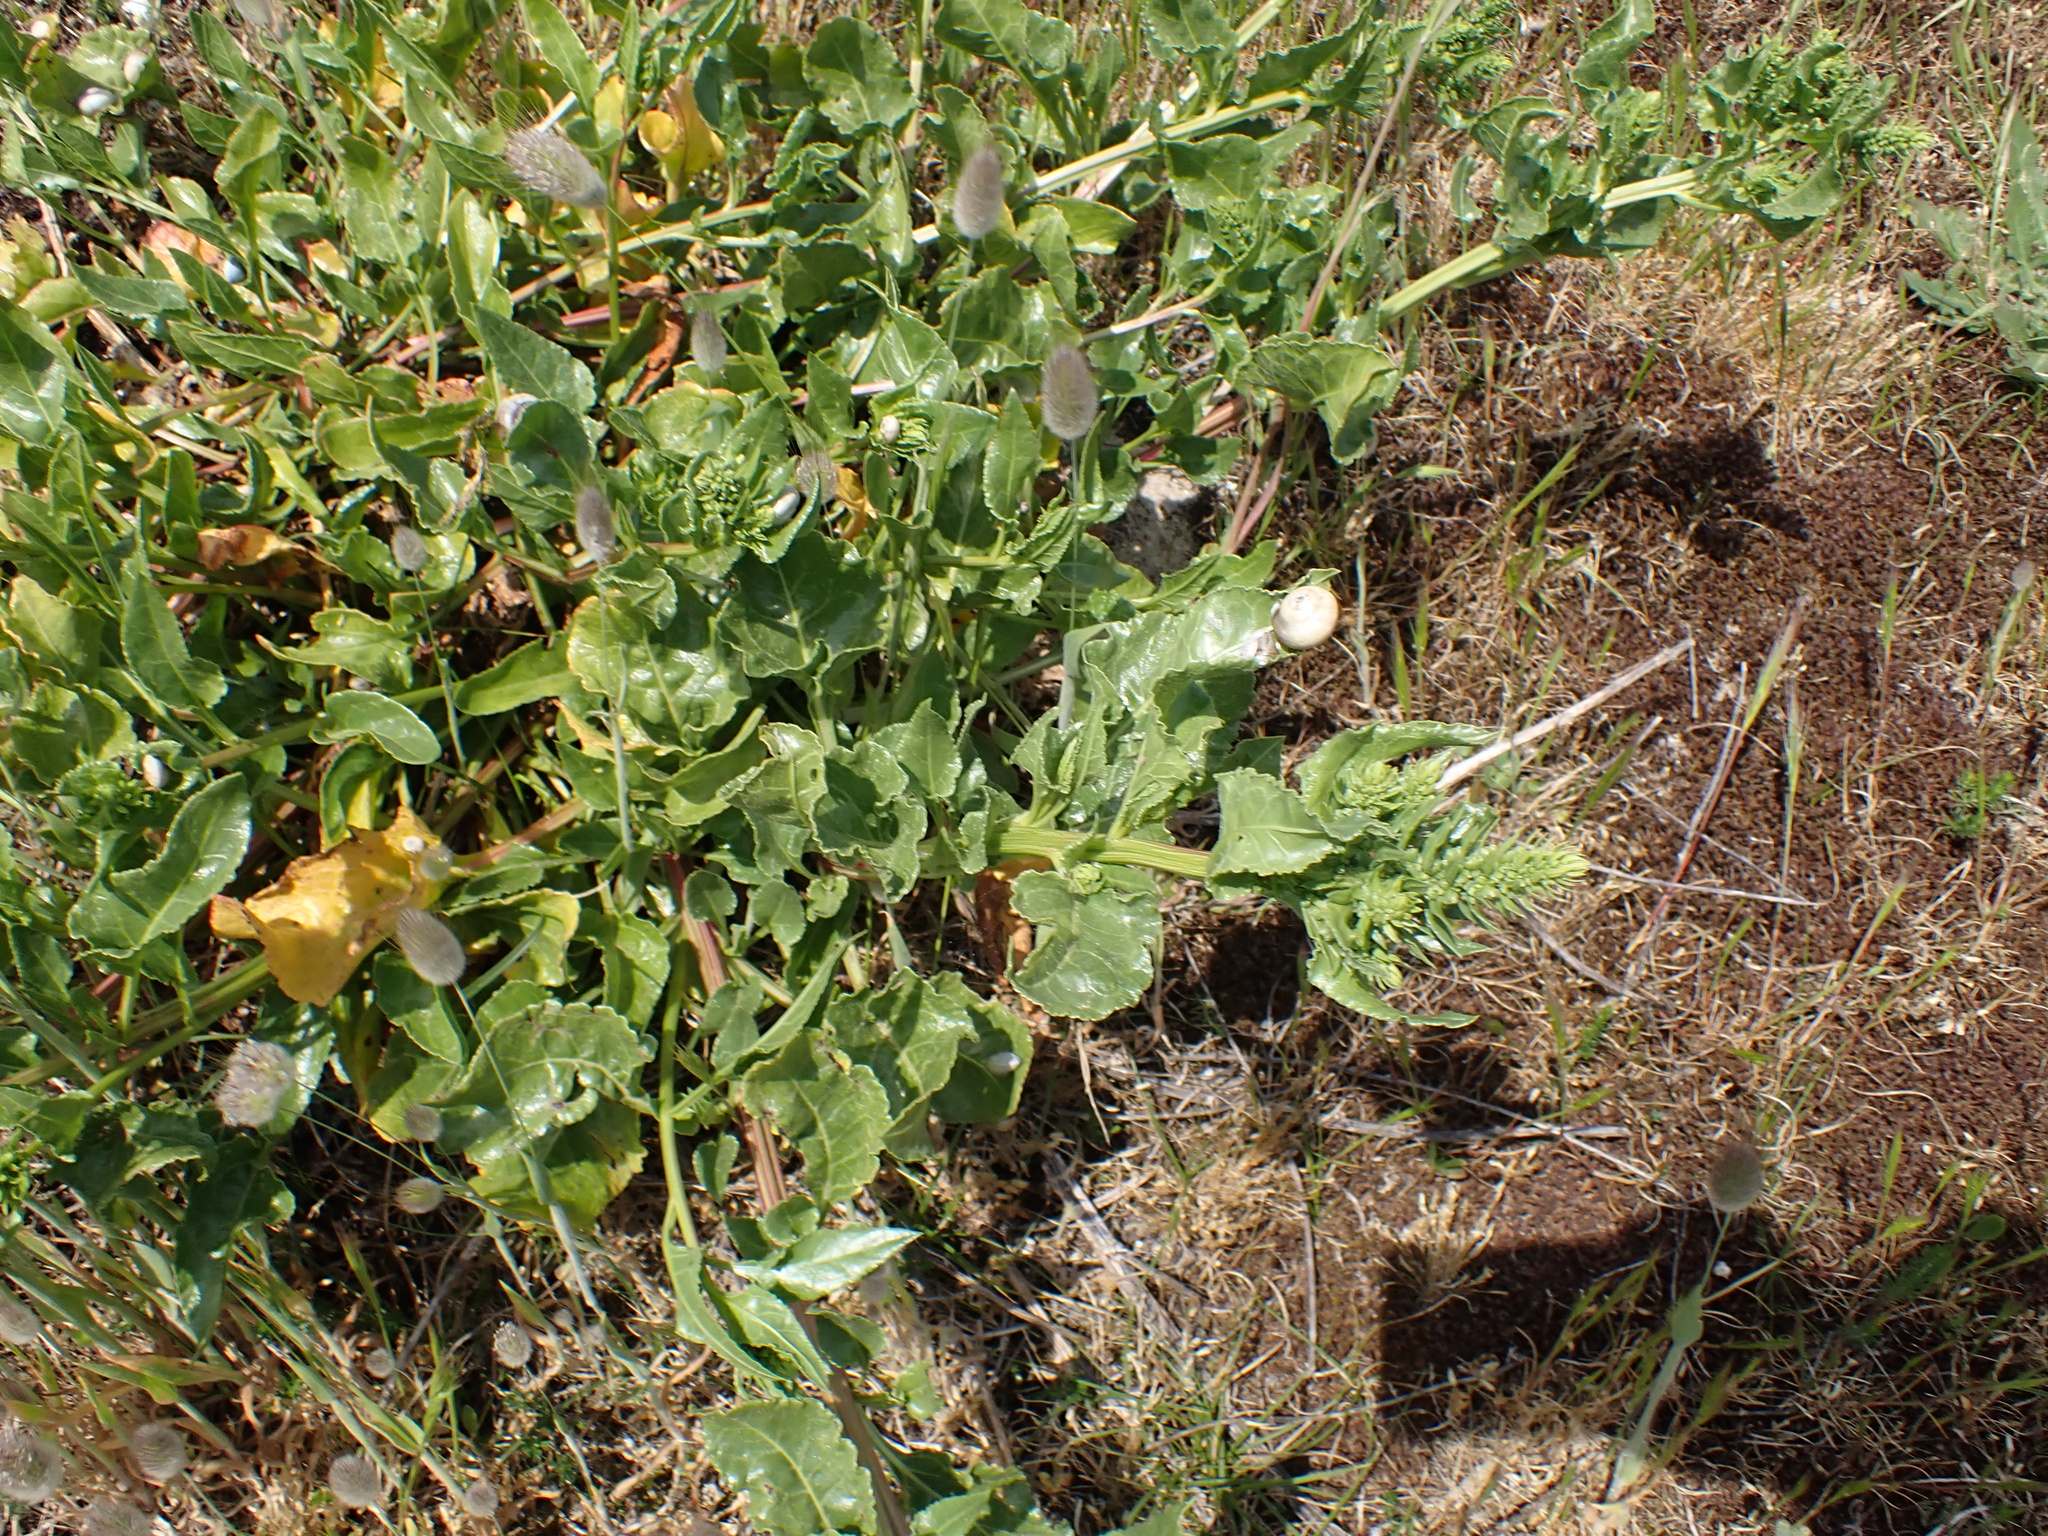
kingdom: Plantae
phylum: Tracheophyta
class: Magnoliopsida
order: Caryophyllales
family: Amaranthaceae
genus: Beta
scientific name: Beta vulgaris
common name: Beet
